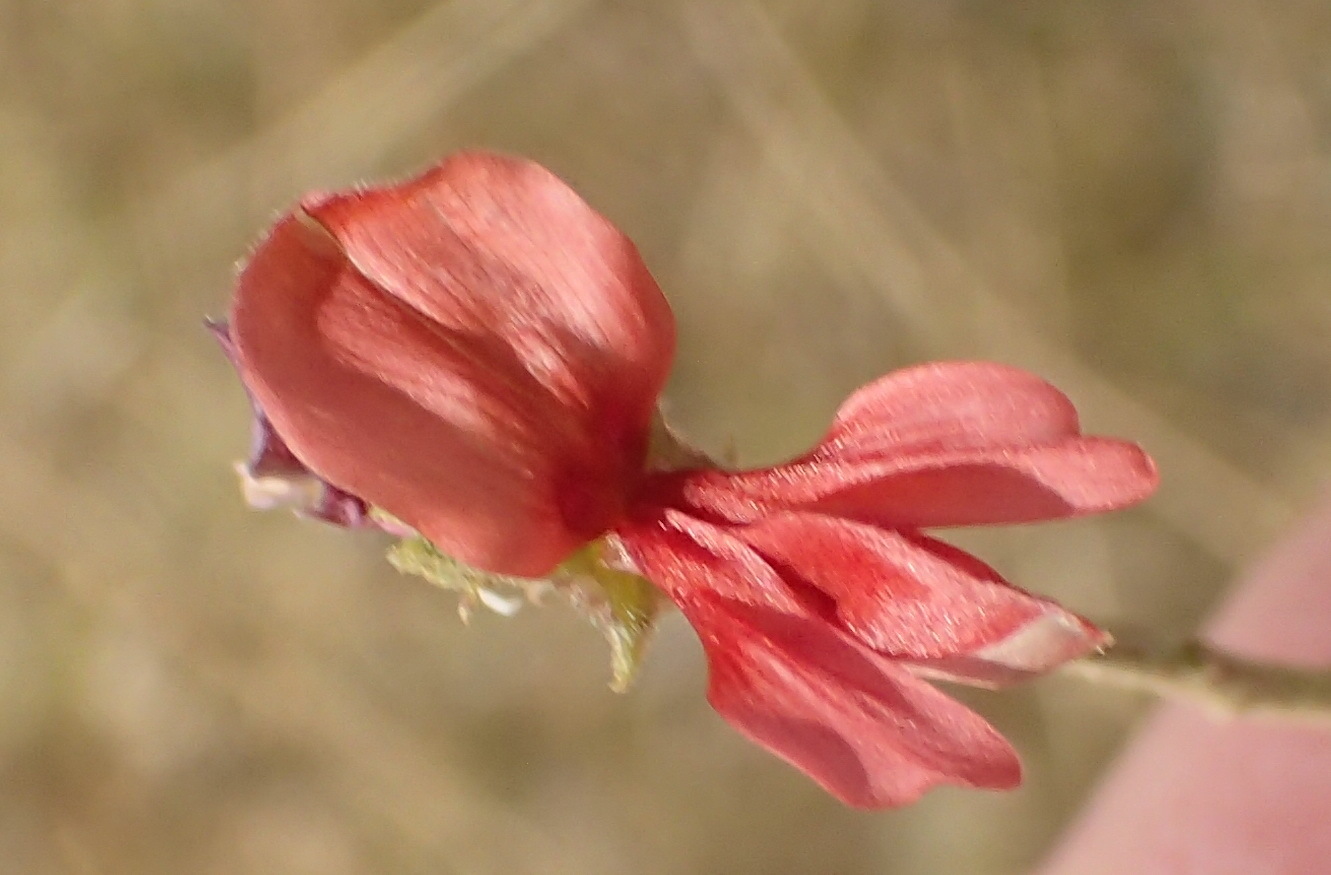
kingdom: Plantae
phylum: Tracheophyta
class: Magnoliopsida
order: Fabales
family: Fabaceae
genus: Indigofera
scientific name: Indigofera heterotricha
